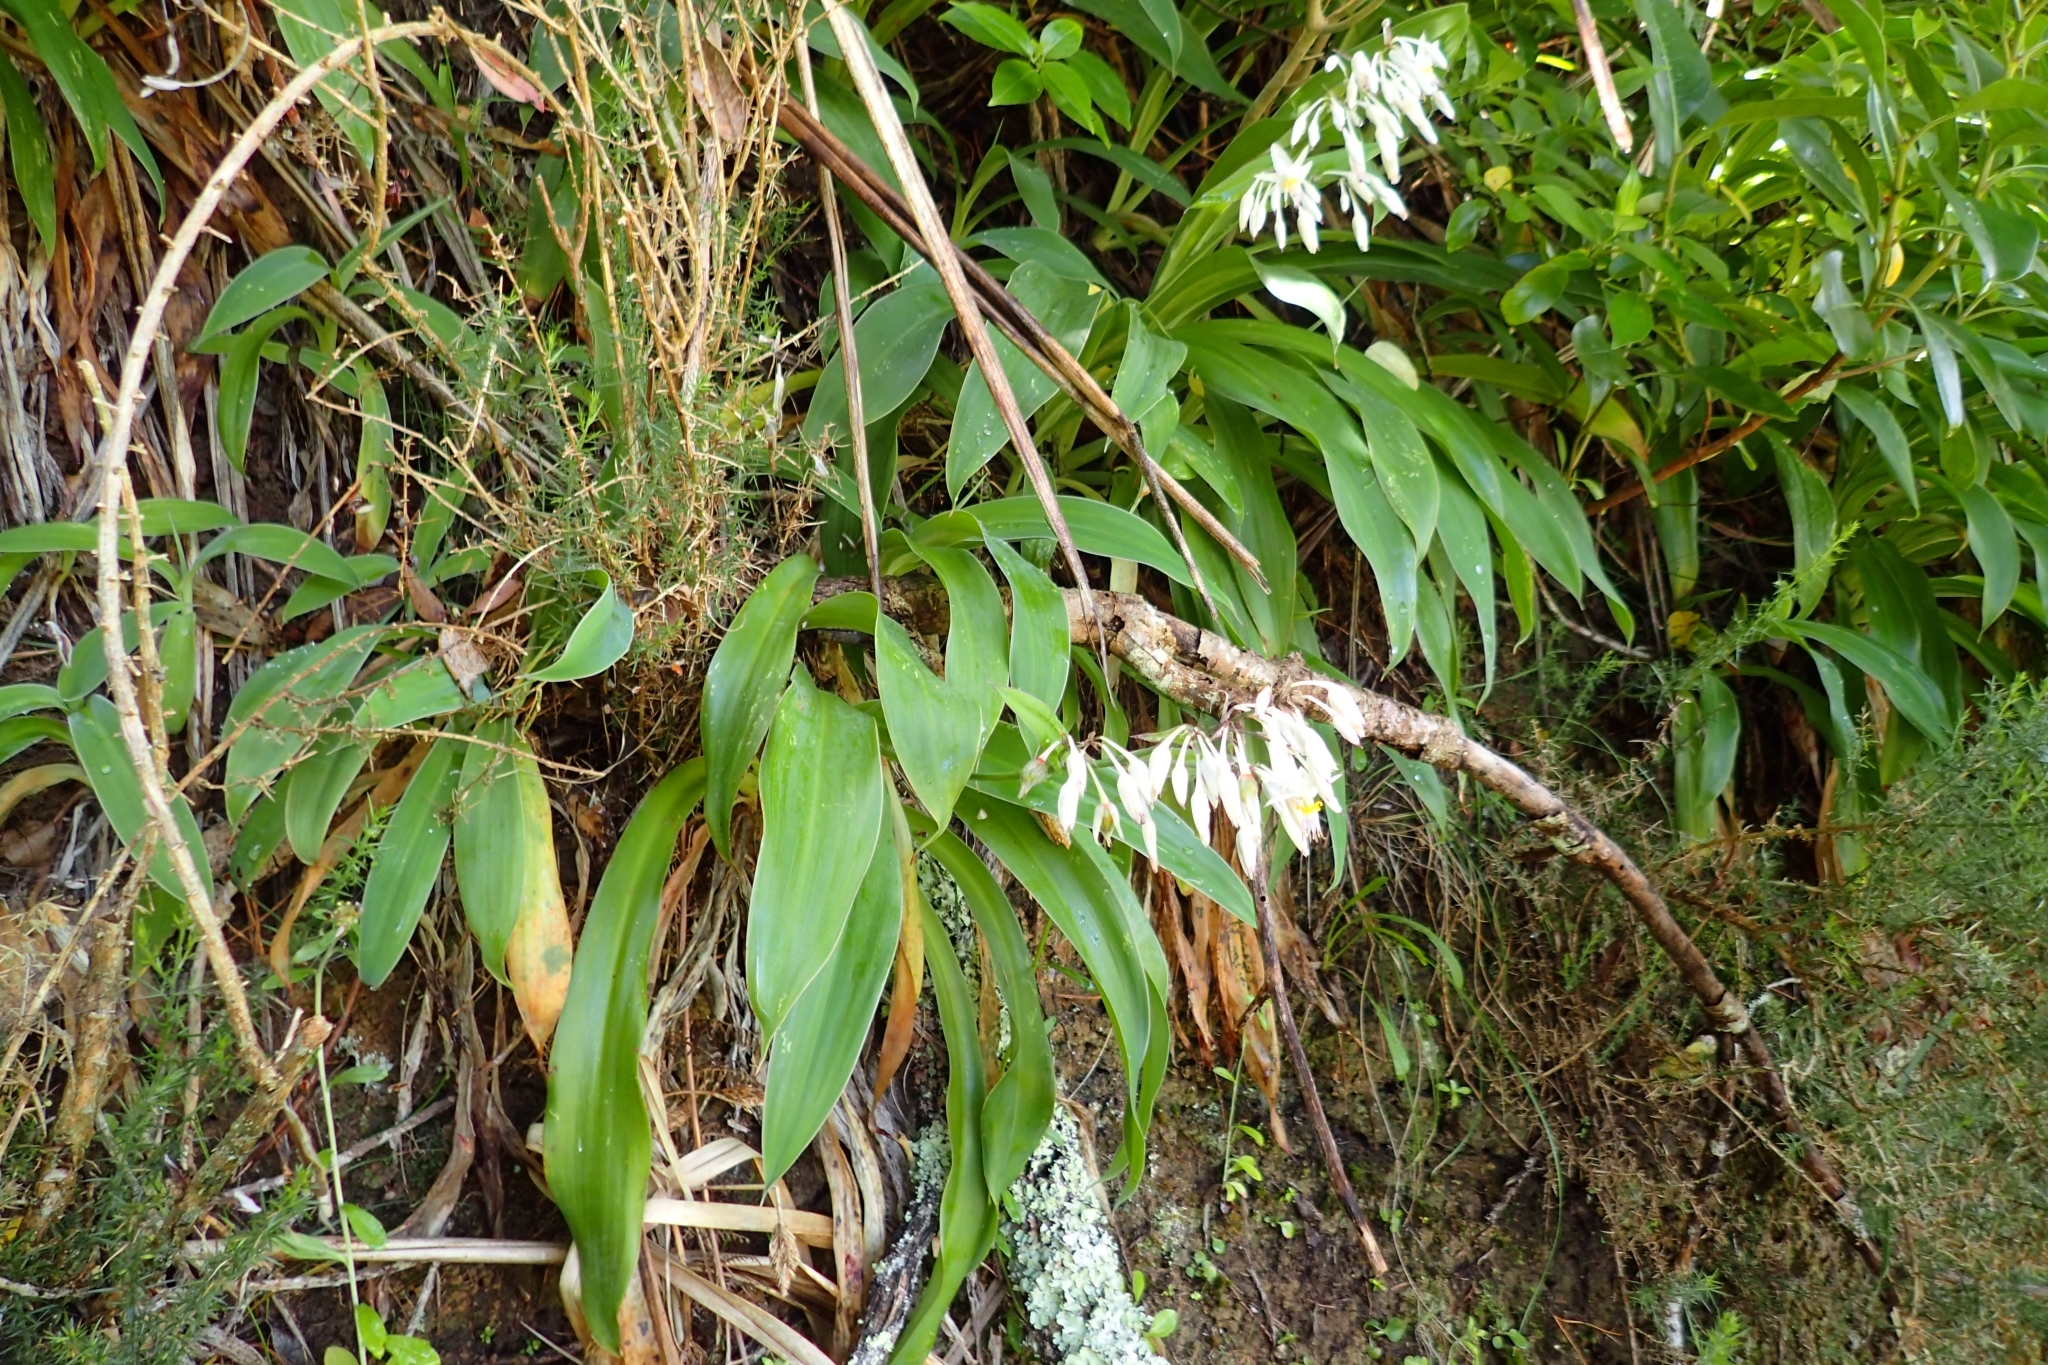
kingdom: Plantae
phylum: Tracheophyta
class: Liliopsida
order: Asparagales
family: Asparagaceae
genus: Arthropodium
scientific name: Arthropodium cirratum
